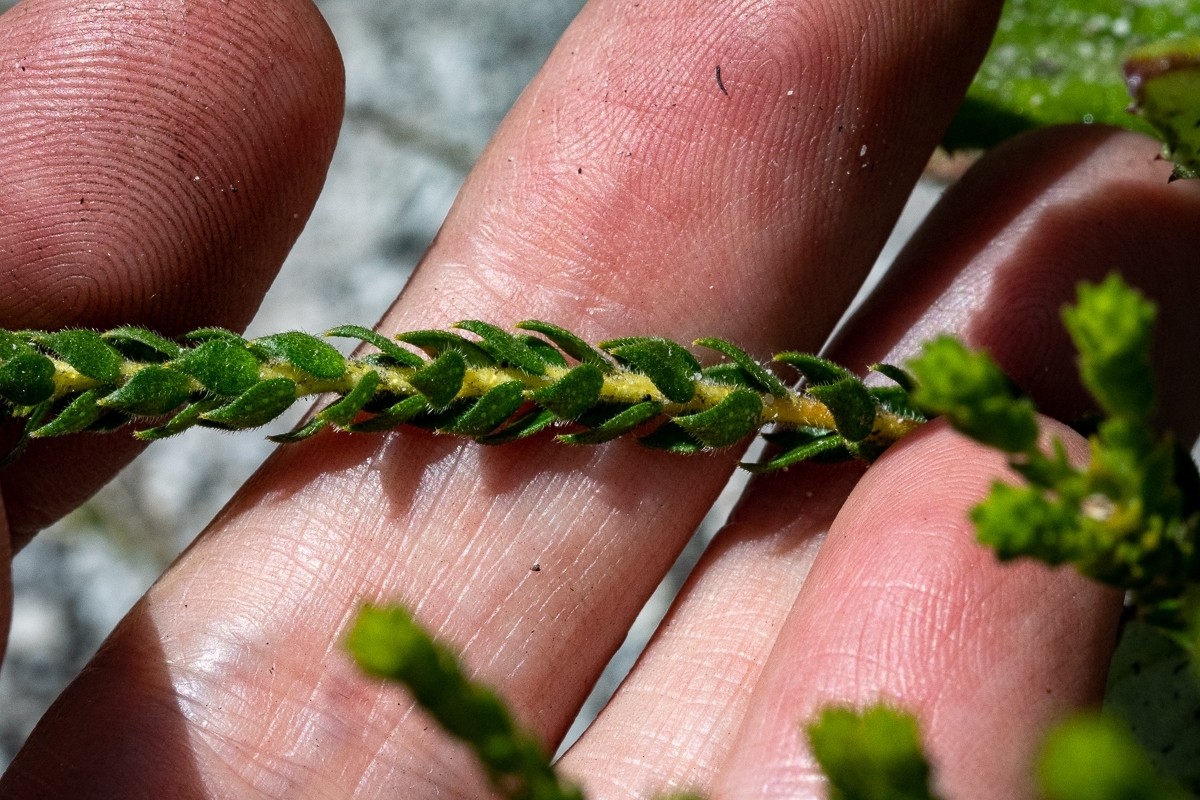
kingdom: Plantae
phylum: Tracheophyta
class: Magnoliopsida
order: Sapindales
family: Rutaceae
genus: Agathosma
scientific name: Agathosma imbricata
